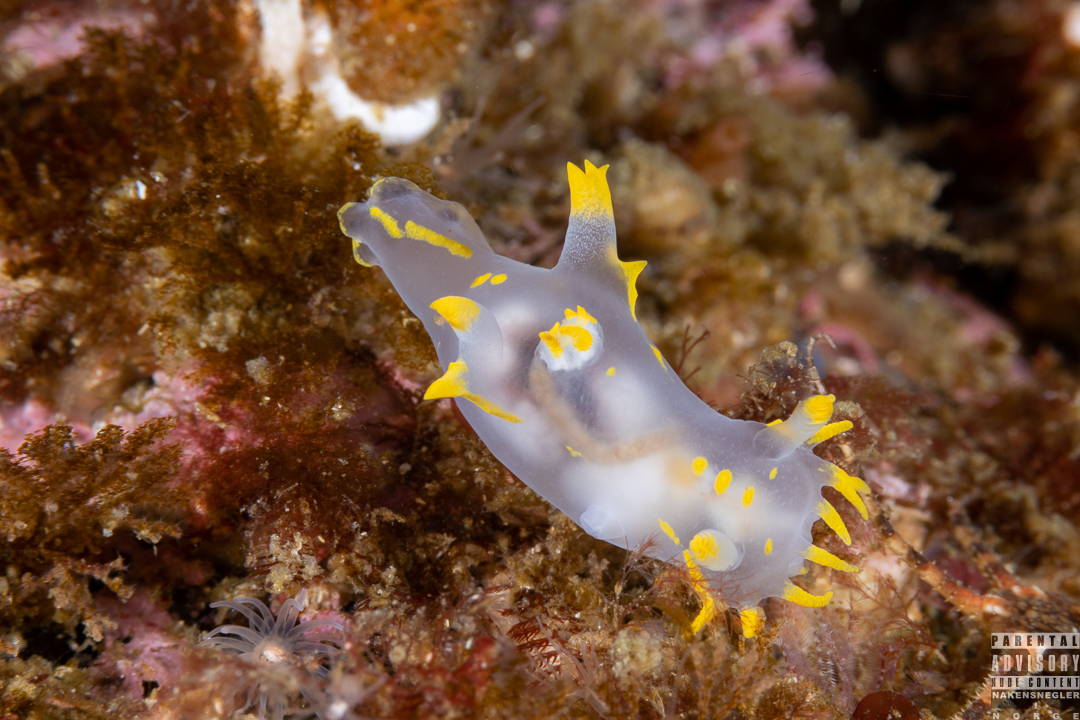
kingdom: Animalia
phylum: Mollusca
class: Gastropoda
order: Nudibranchia
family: Polyceridae
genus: Polycera
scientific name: Polycera faeroensis
